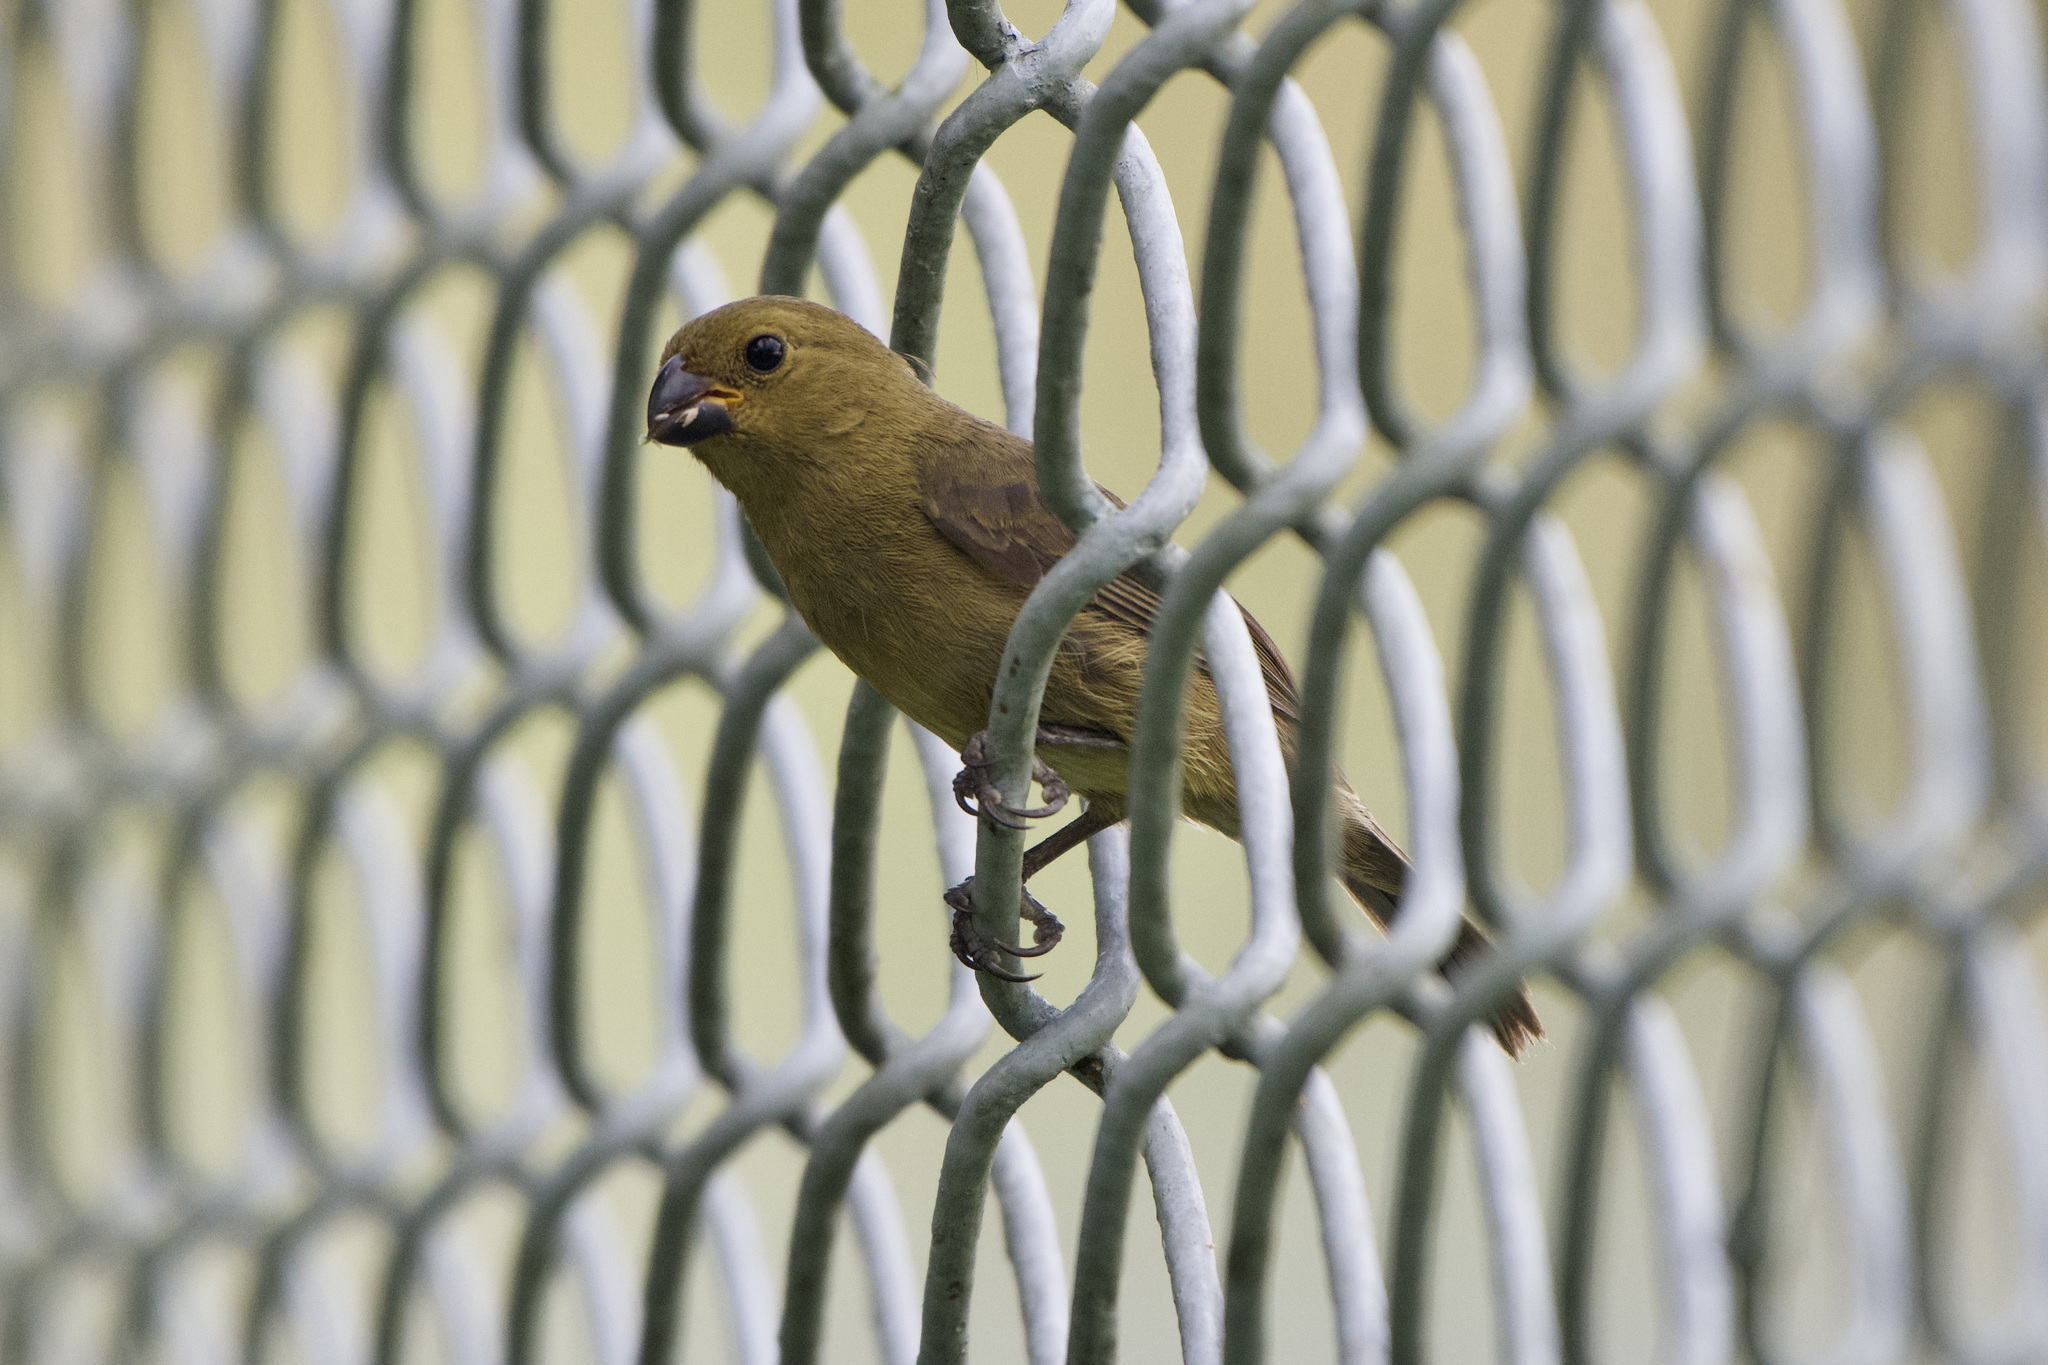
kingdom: Animalia
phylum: Chordata
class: Aves
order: Passeriformes
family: Thraupidae
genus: Sporophila
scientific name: Sporophila corvina
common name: Variable seedeater
